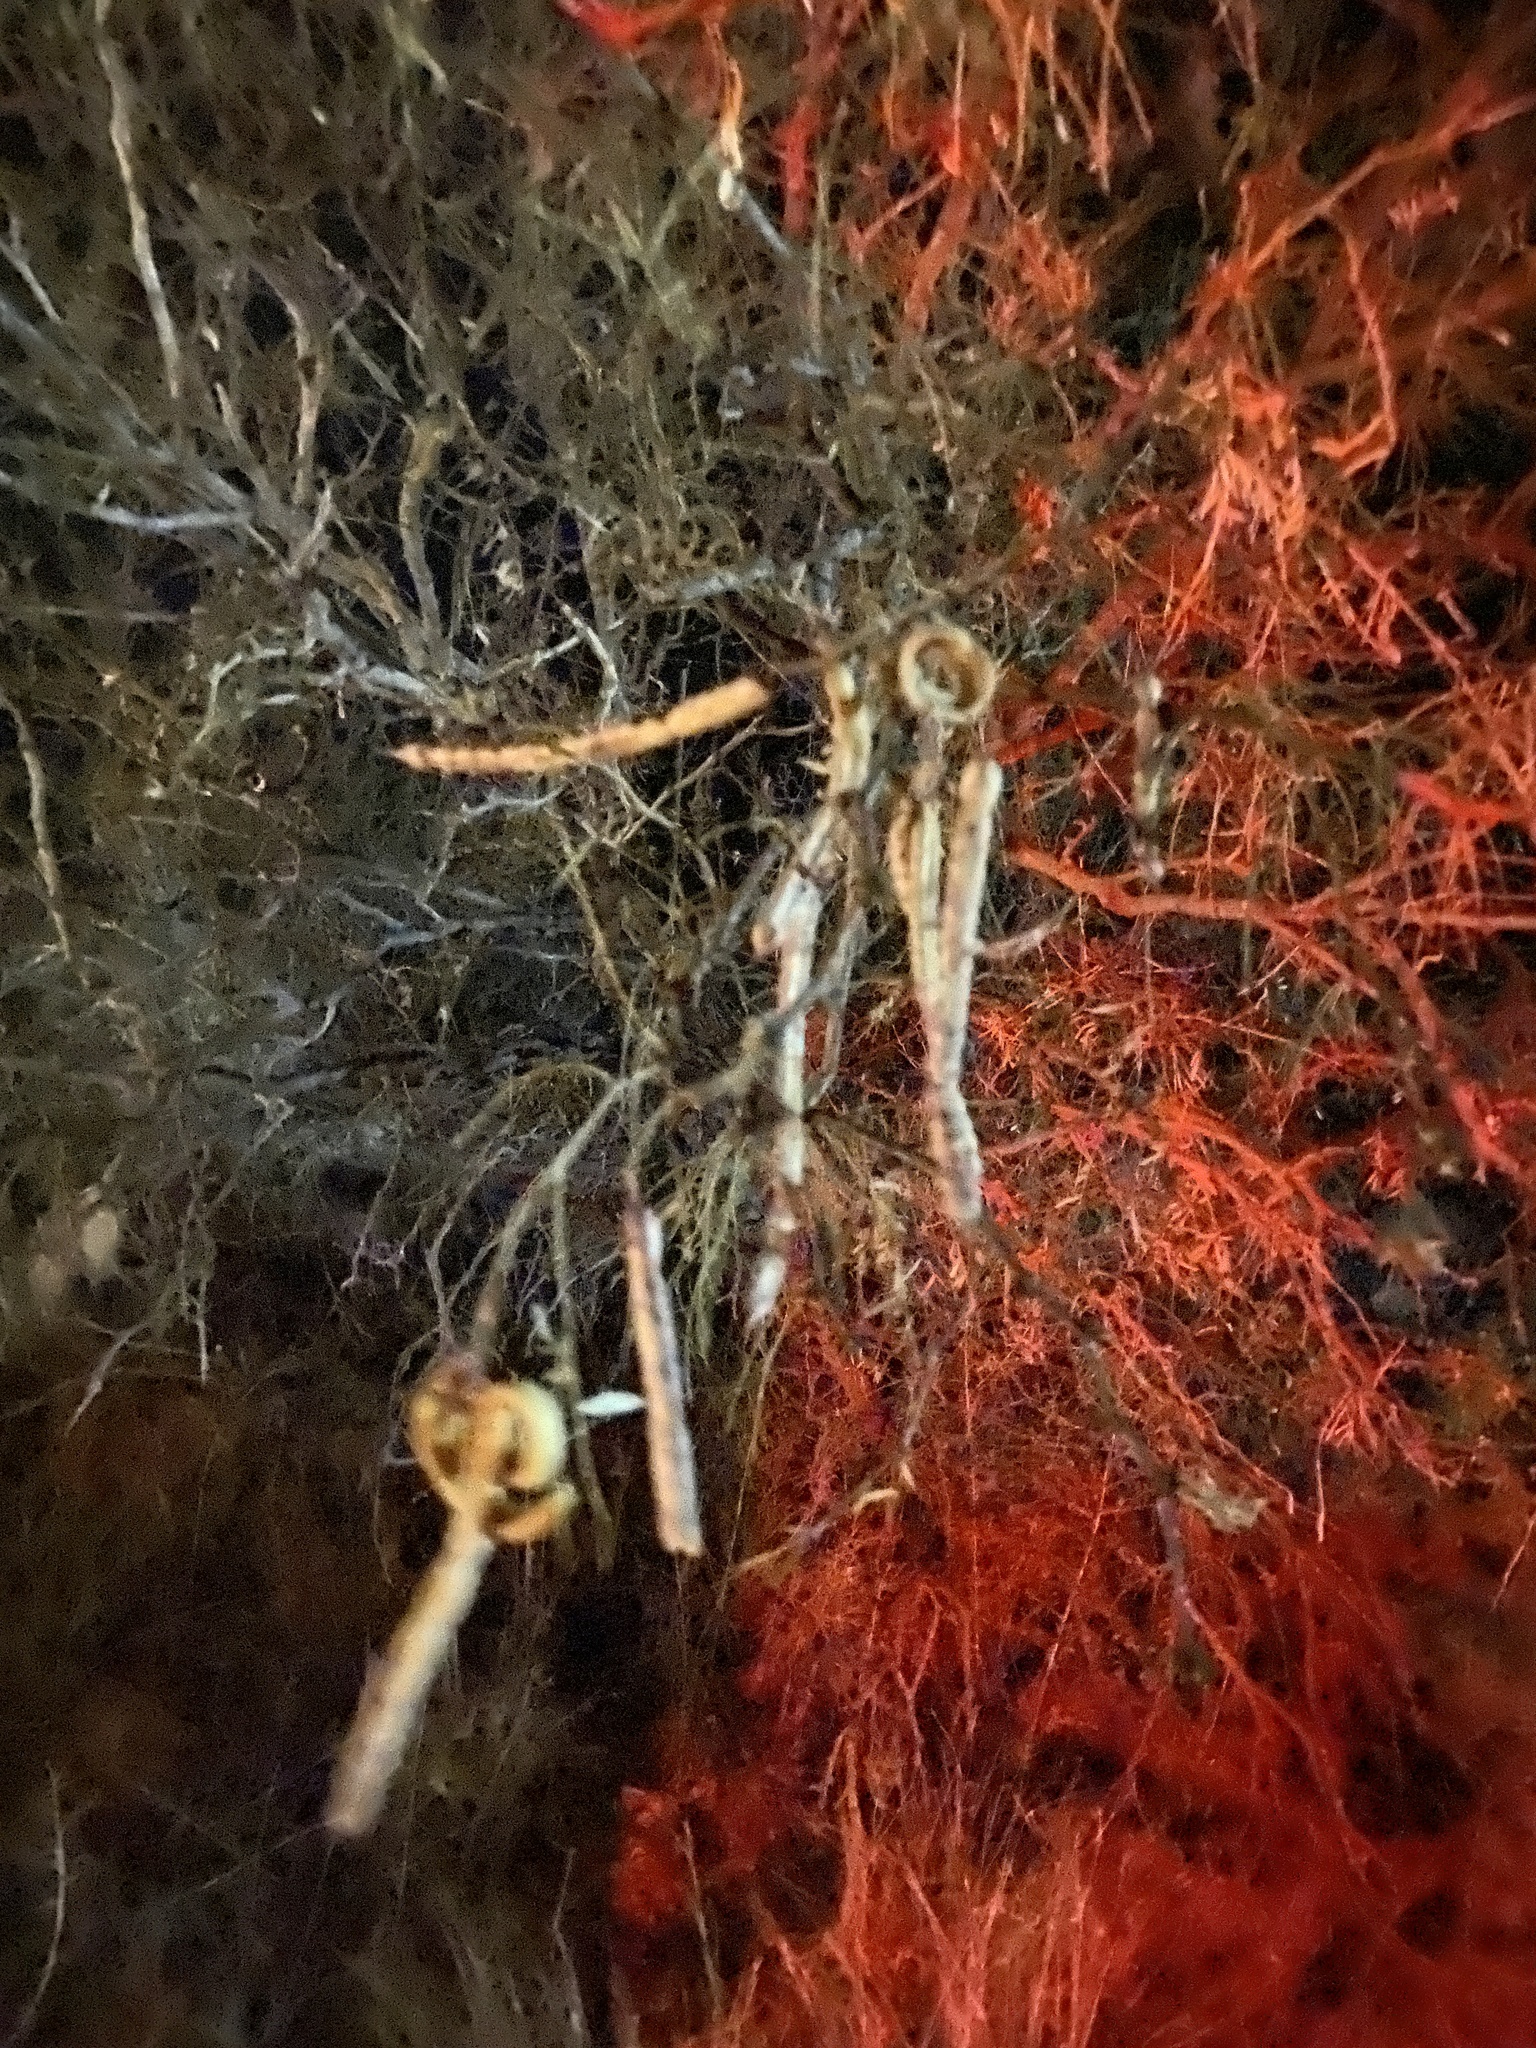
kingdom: Plantae
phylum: Tracheophyta
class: Magnoliopsida
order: Fabales
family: Fabaceae
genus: Prosopis
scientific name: Prosopis glandulosa
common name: Honey mesquite
